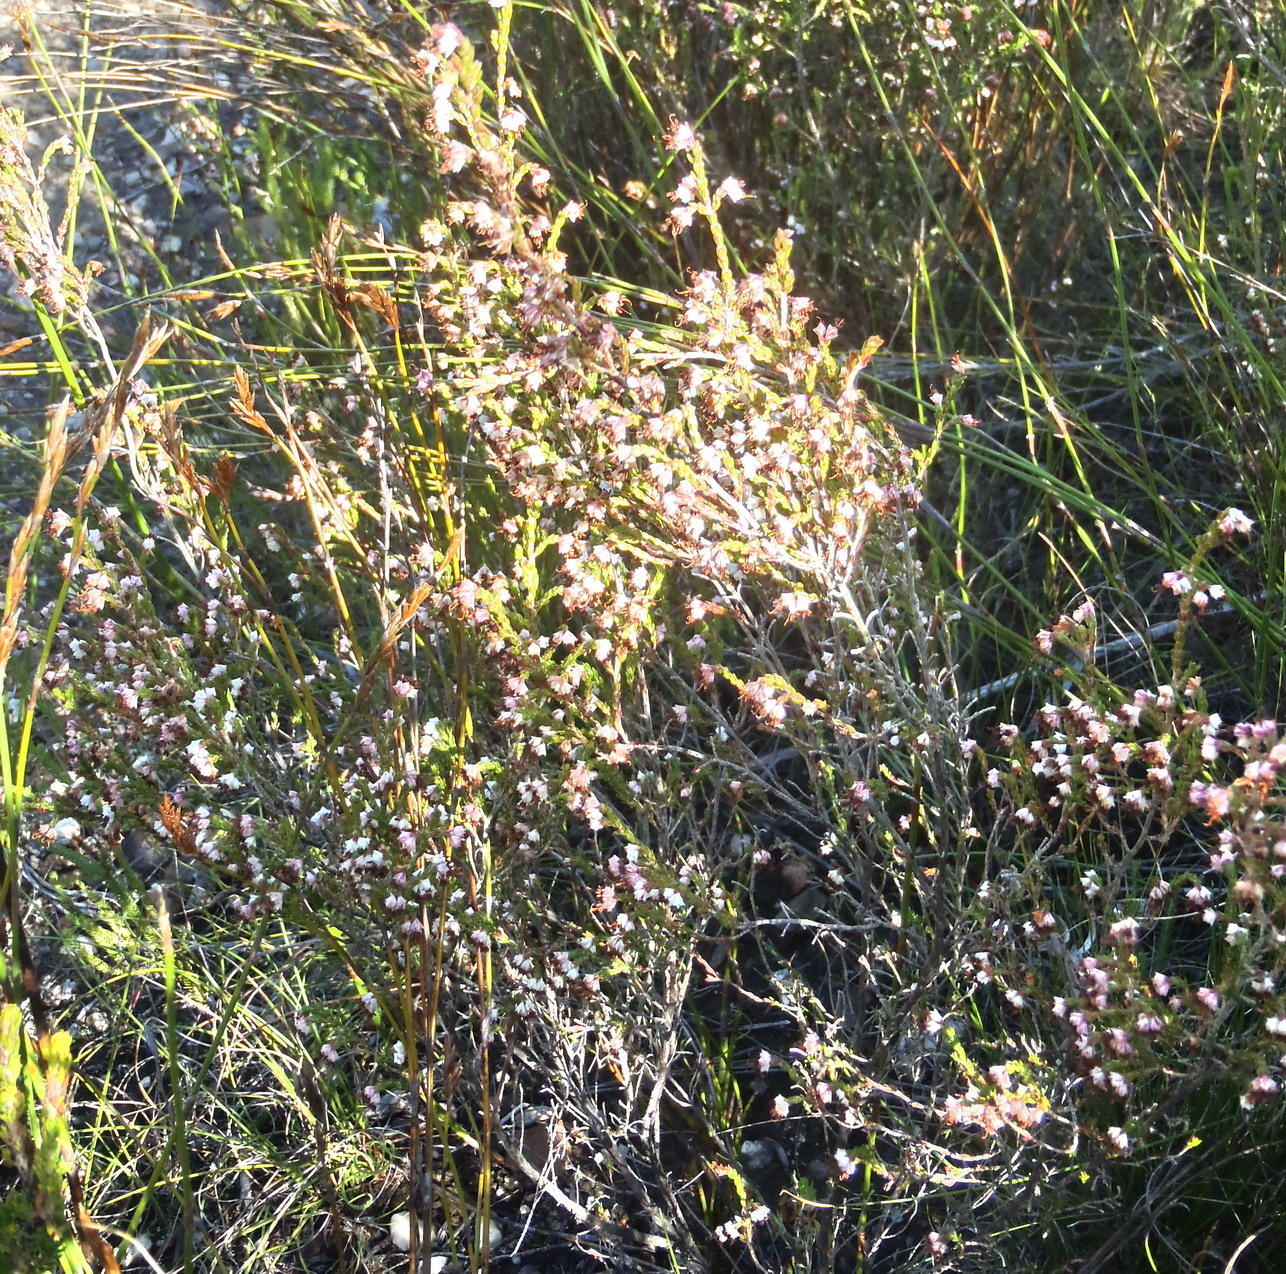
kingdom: Plantae
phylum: Tracheophyta
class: Magnoliopsida
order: Ericales
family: Ericaceae
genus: Erica
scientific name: Erica triceps
